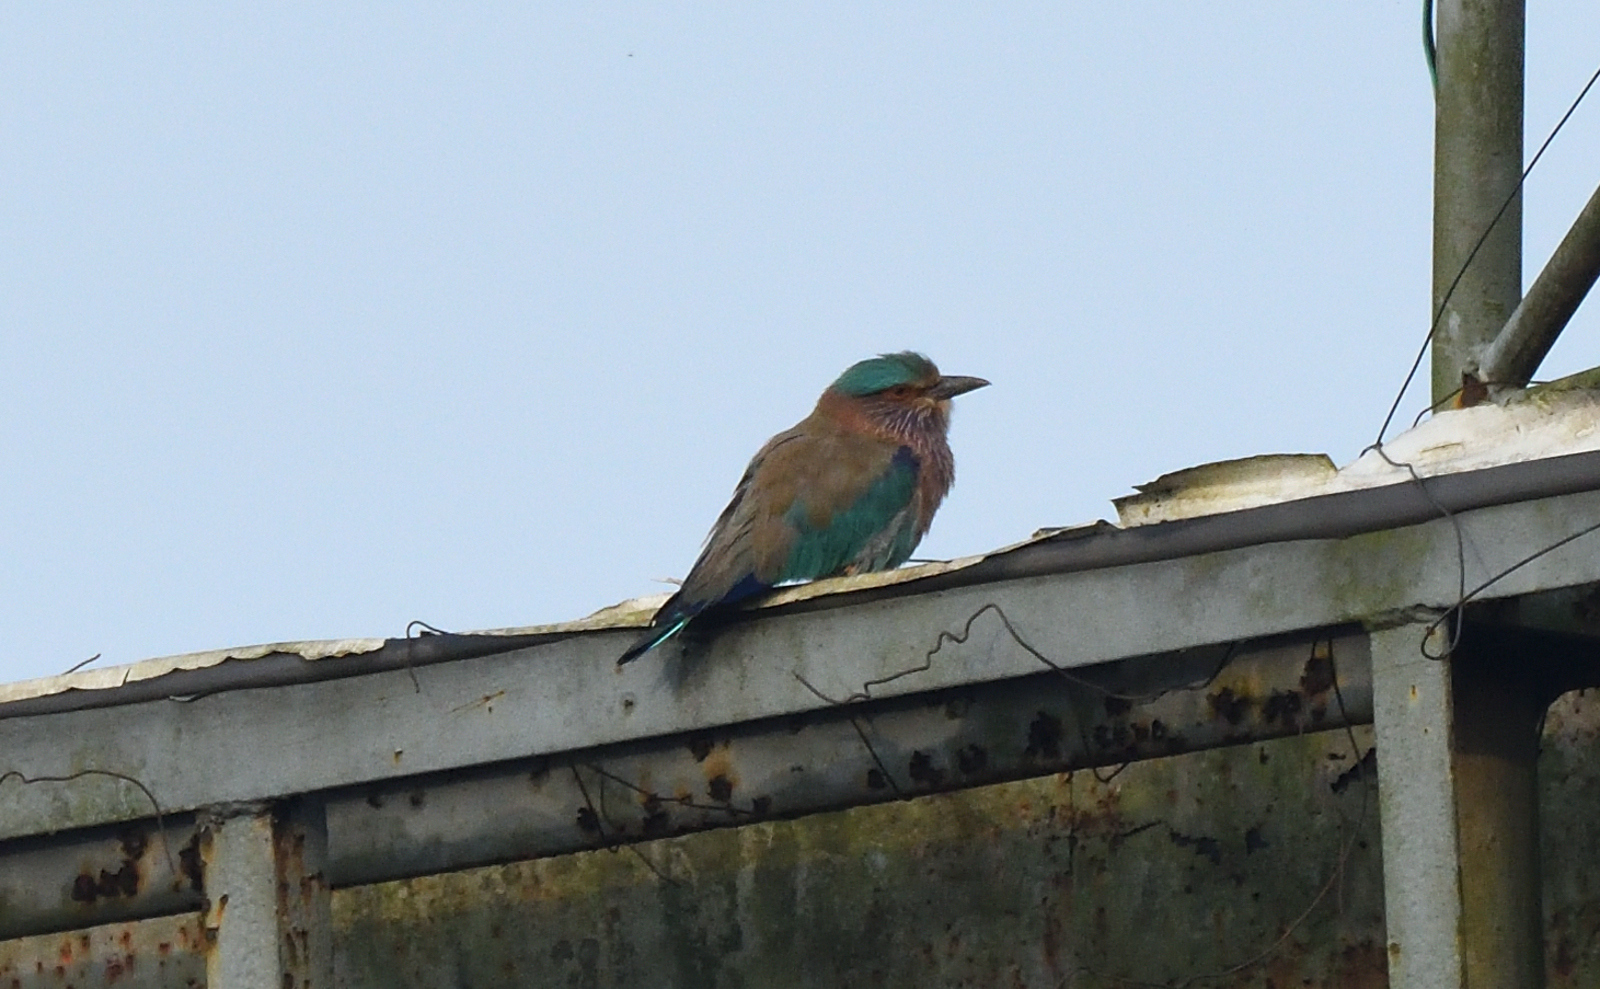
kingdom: Animalia
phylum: Chordata
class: Aves
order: Coraciiformes
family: Coraciidae
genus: Coracias
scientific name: Coracias benghalensis
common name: Indian roller
